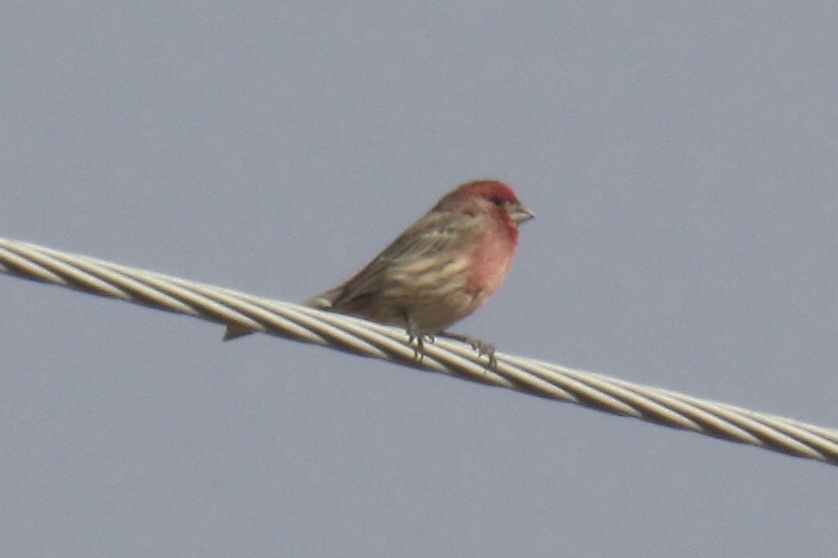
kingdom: Animalia
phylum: Chordata
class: Aves
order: Passeriformes
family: Fringillidae
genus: Haemorhous
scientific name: Haemorhous mexicanus
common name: House finch
